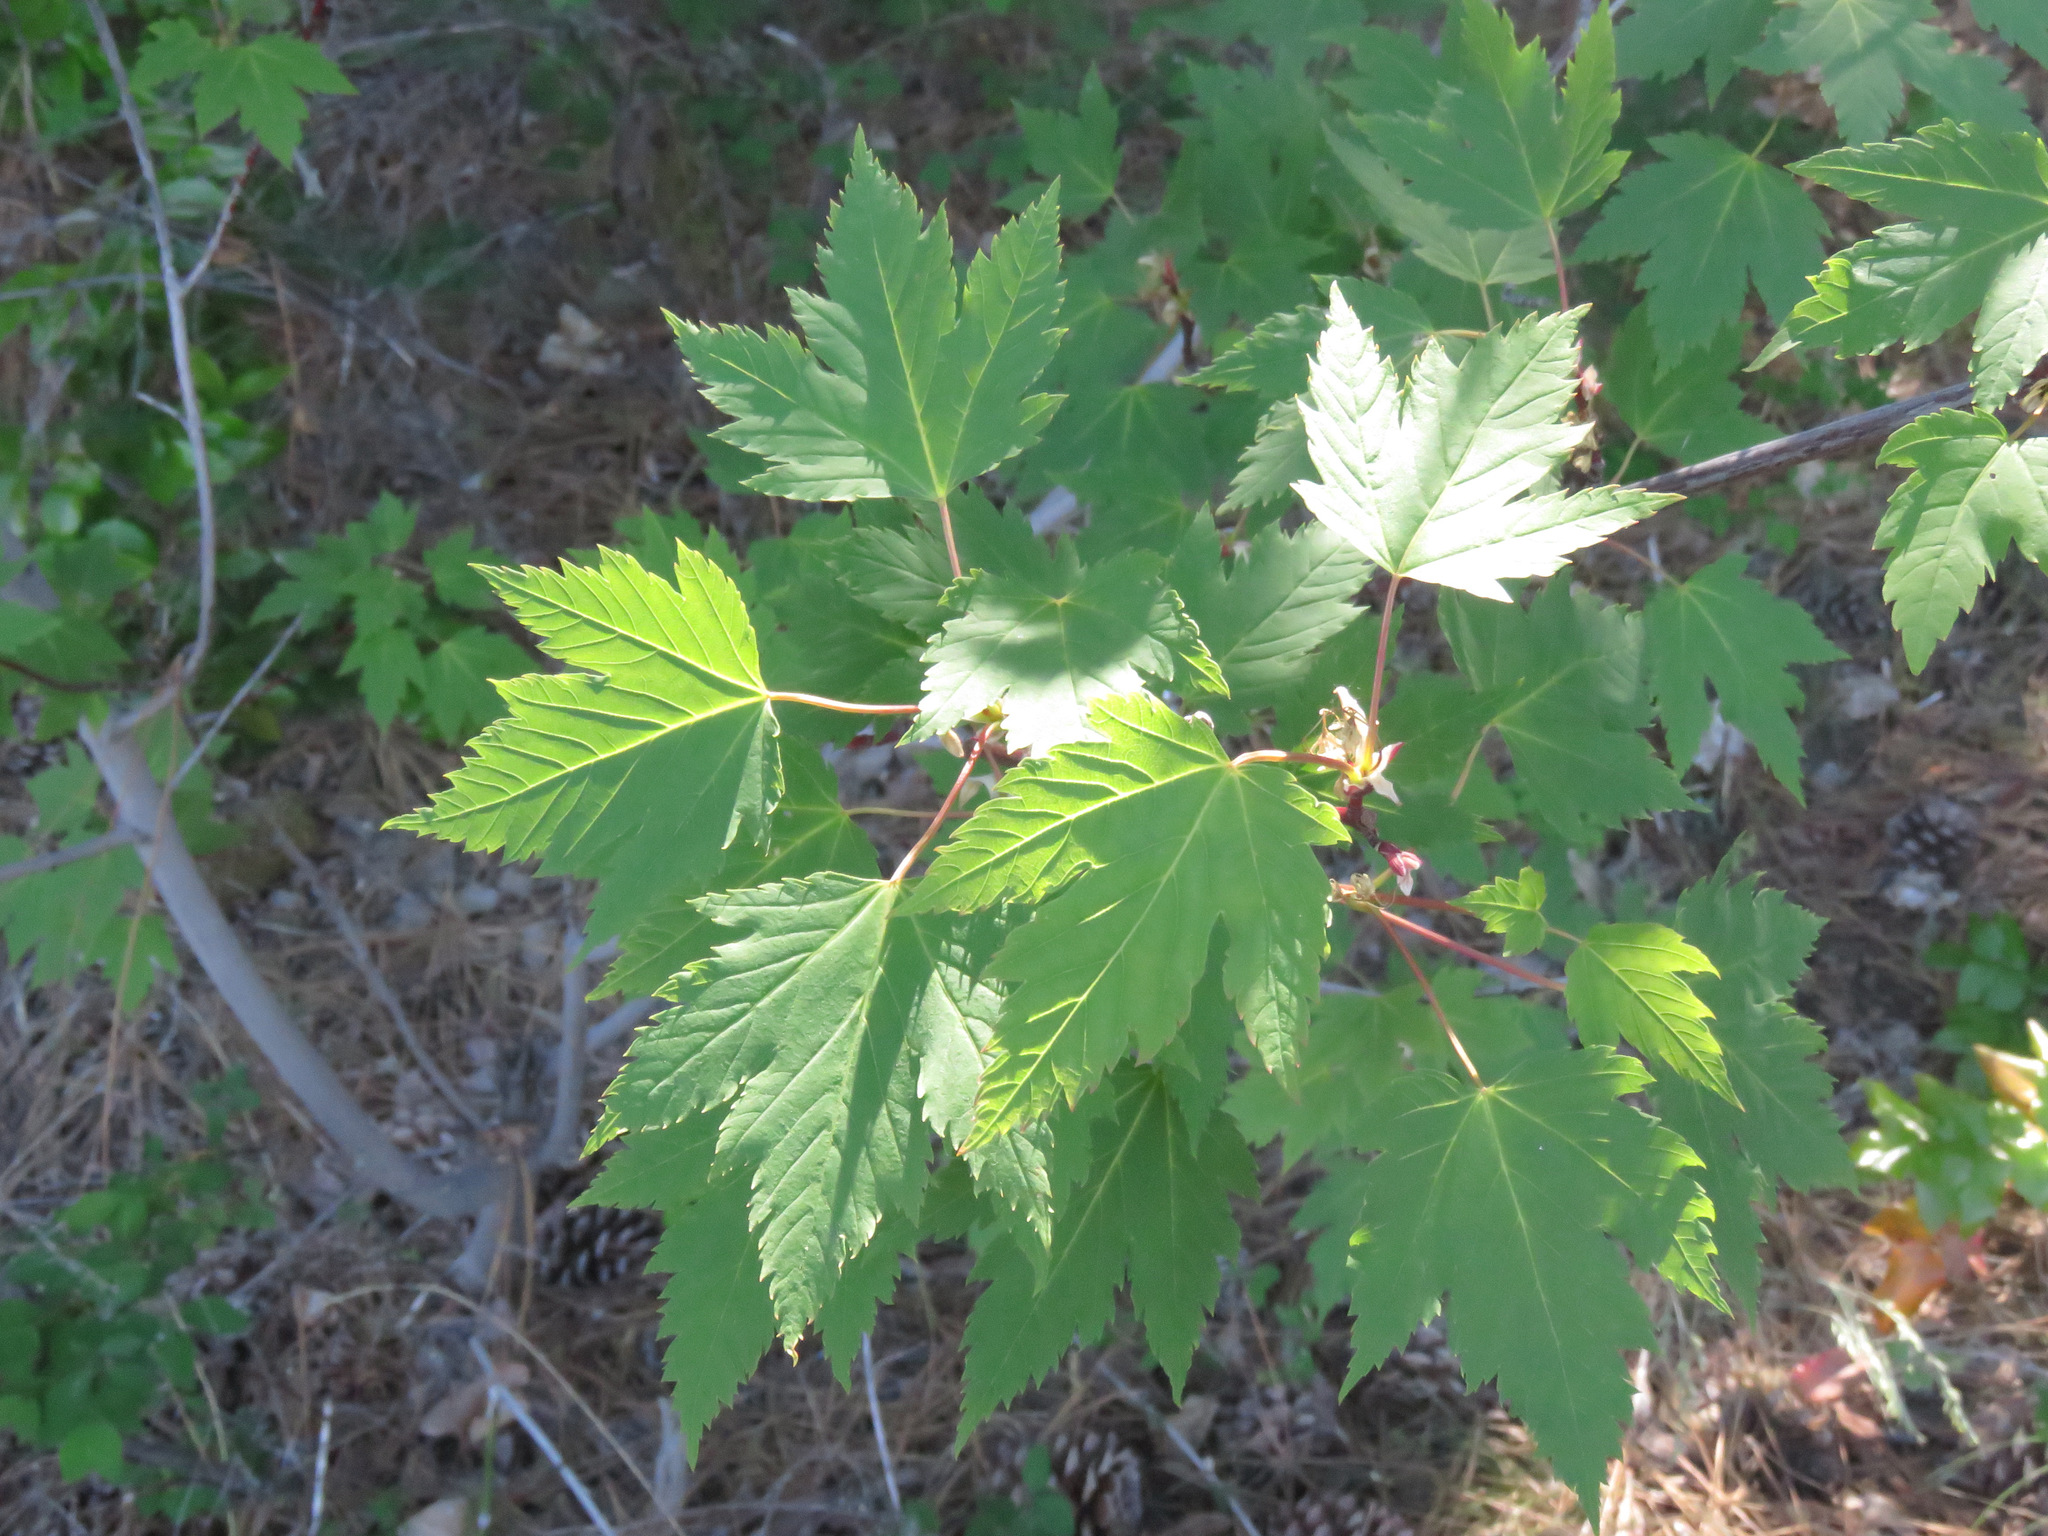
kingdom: Plantae
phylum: Tracheophyta
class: Magnoliopsida
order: Sapindales
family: Sapindaceae
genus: Acer
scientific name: Acer glabrum
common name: Rocky mountain maple
